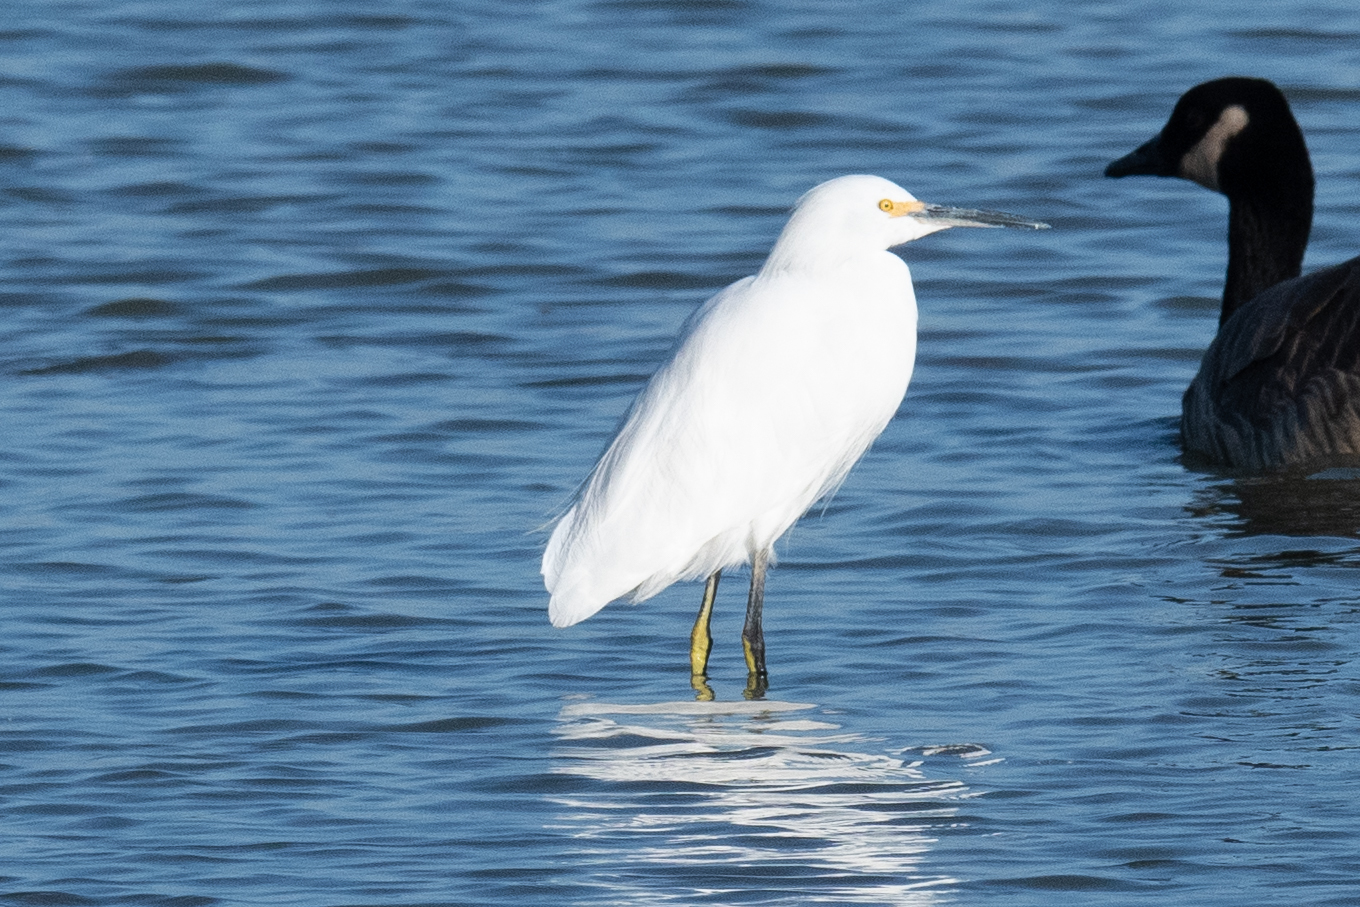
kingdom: Animalia
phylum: Chordata
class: Aves
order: Pelecaniformes
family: Ardeidae
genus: Egretta
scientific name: Egretta thula
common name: Snowy egret
